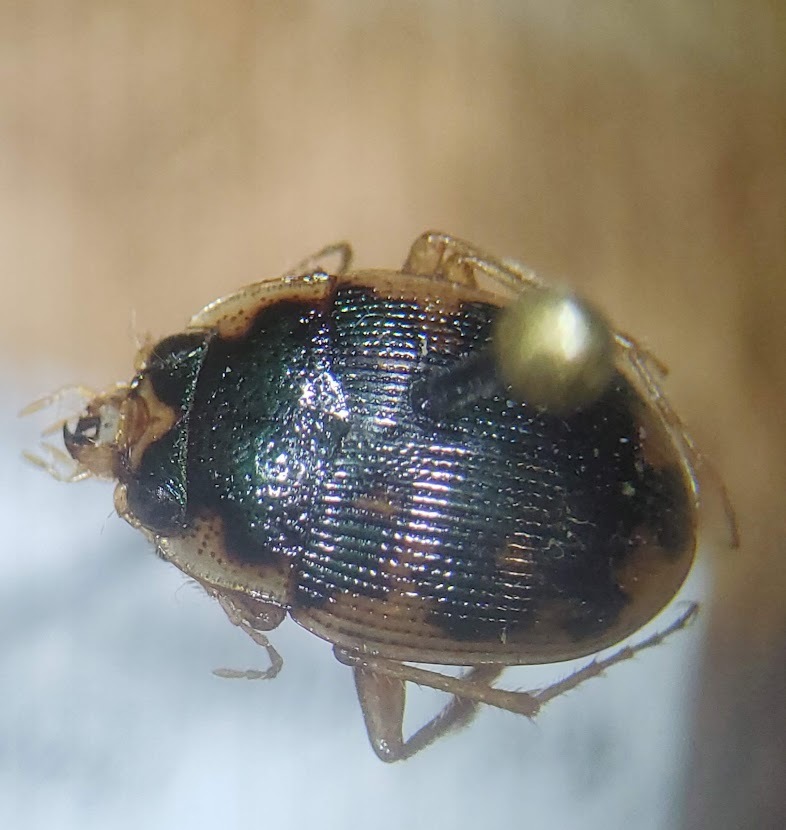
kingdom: Animalia
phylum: Arthropoda
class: Insecta
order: Coleoptera
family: Carabidae
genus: Omophron
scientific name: Omophron americanum
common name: American round sand beetle
